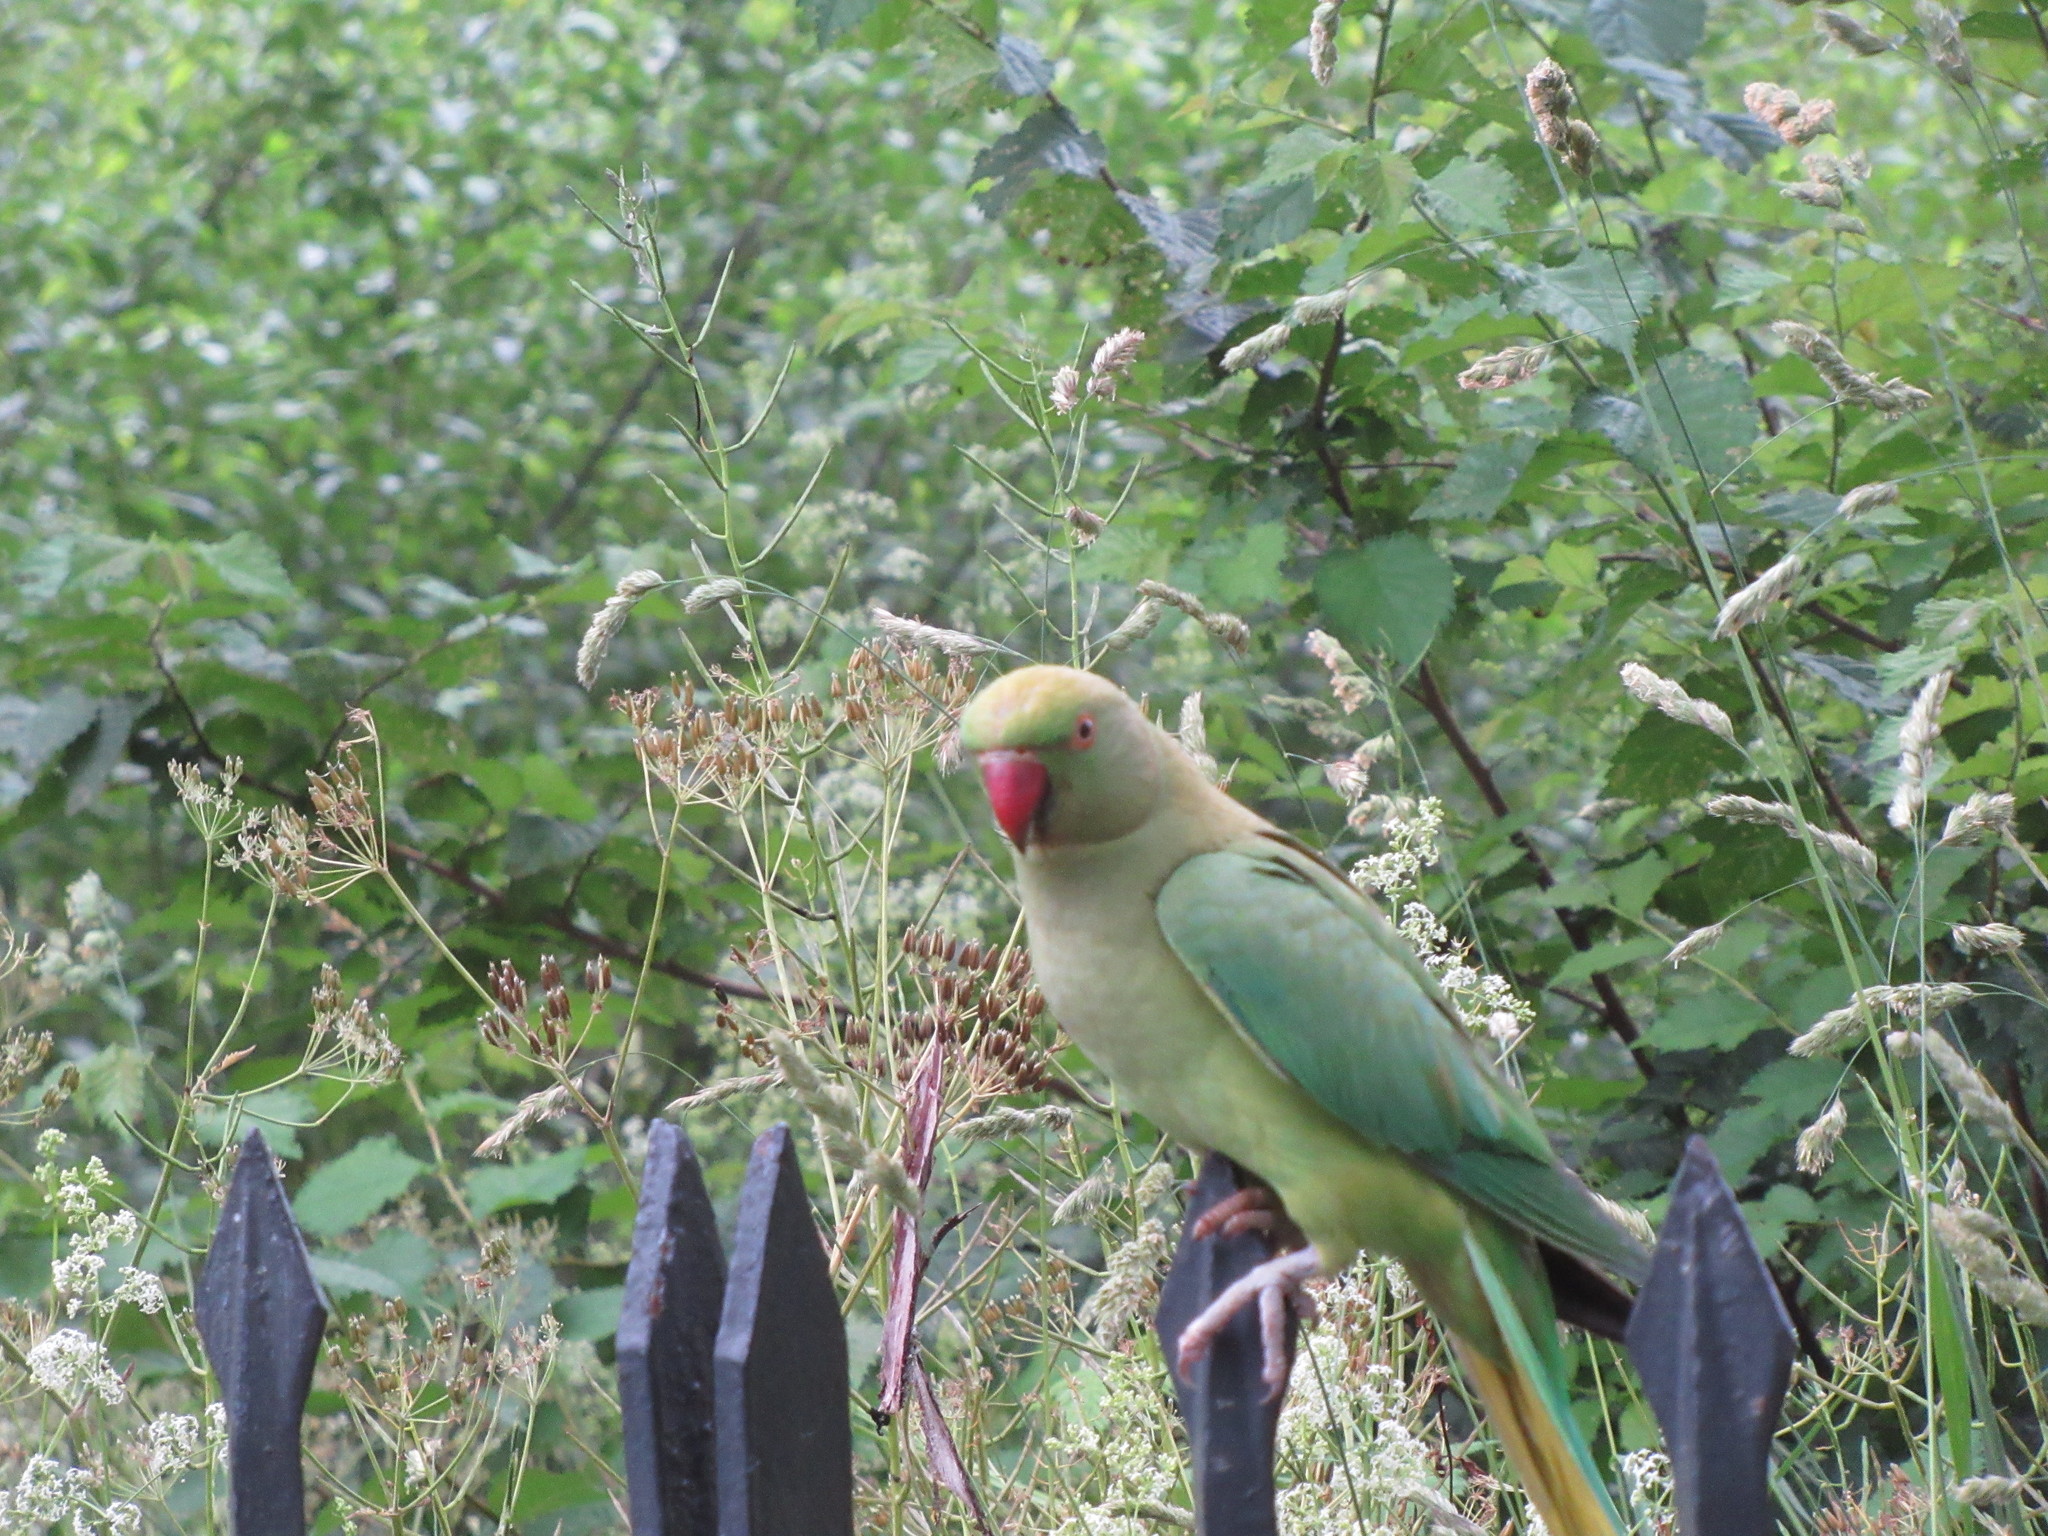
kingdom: Animalia
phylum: Chordata
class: Aves
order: Psittaciformes
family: Psittacidae
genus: Psittacula
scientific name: Psittacula krameri
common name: Rose-ringed parakeet
